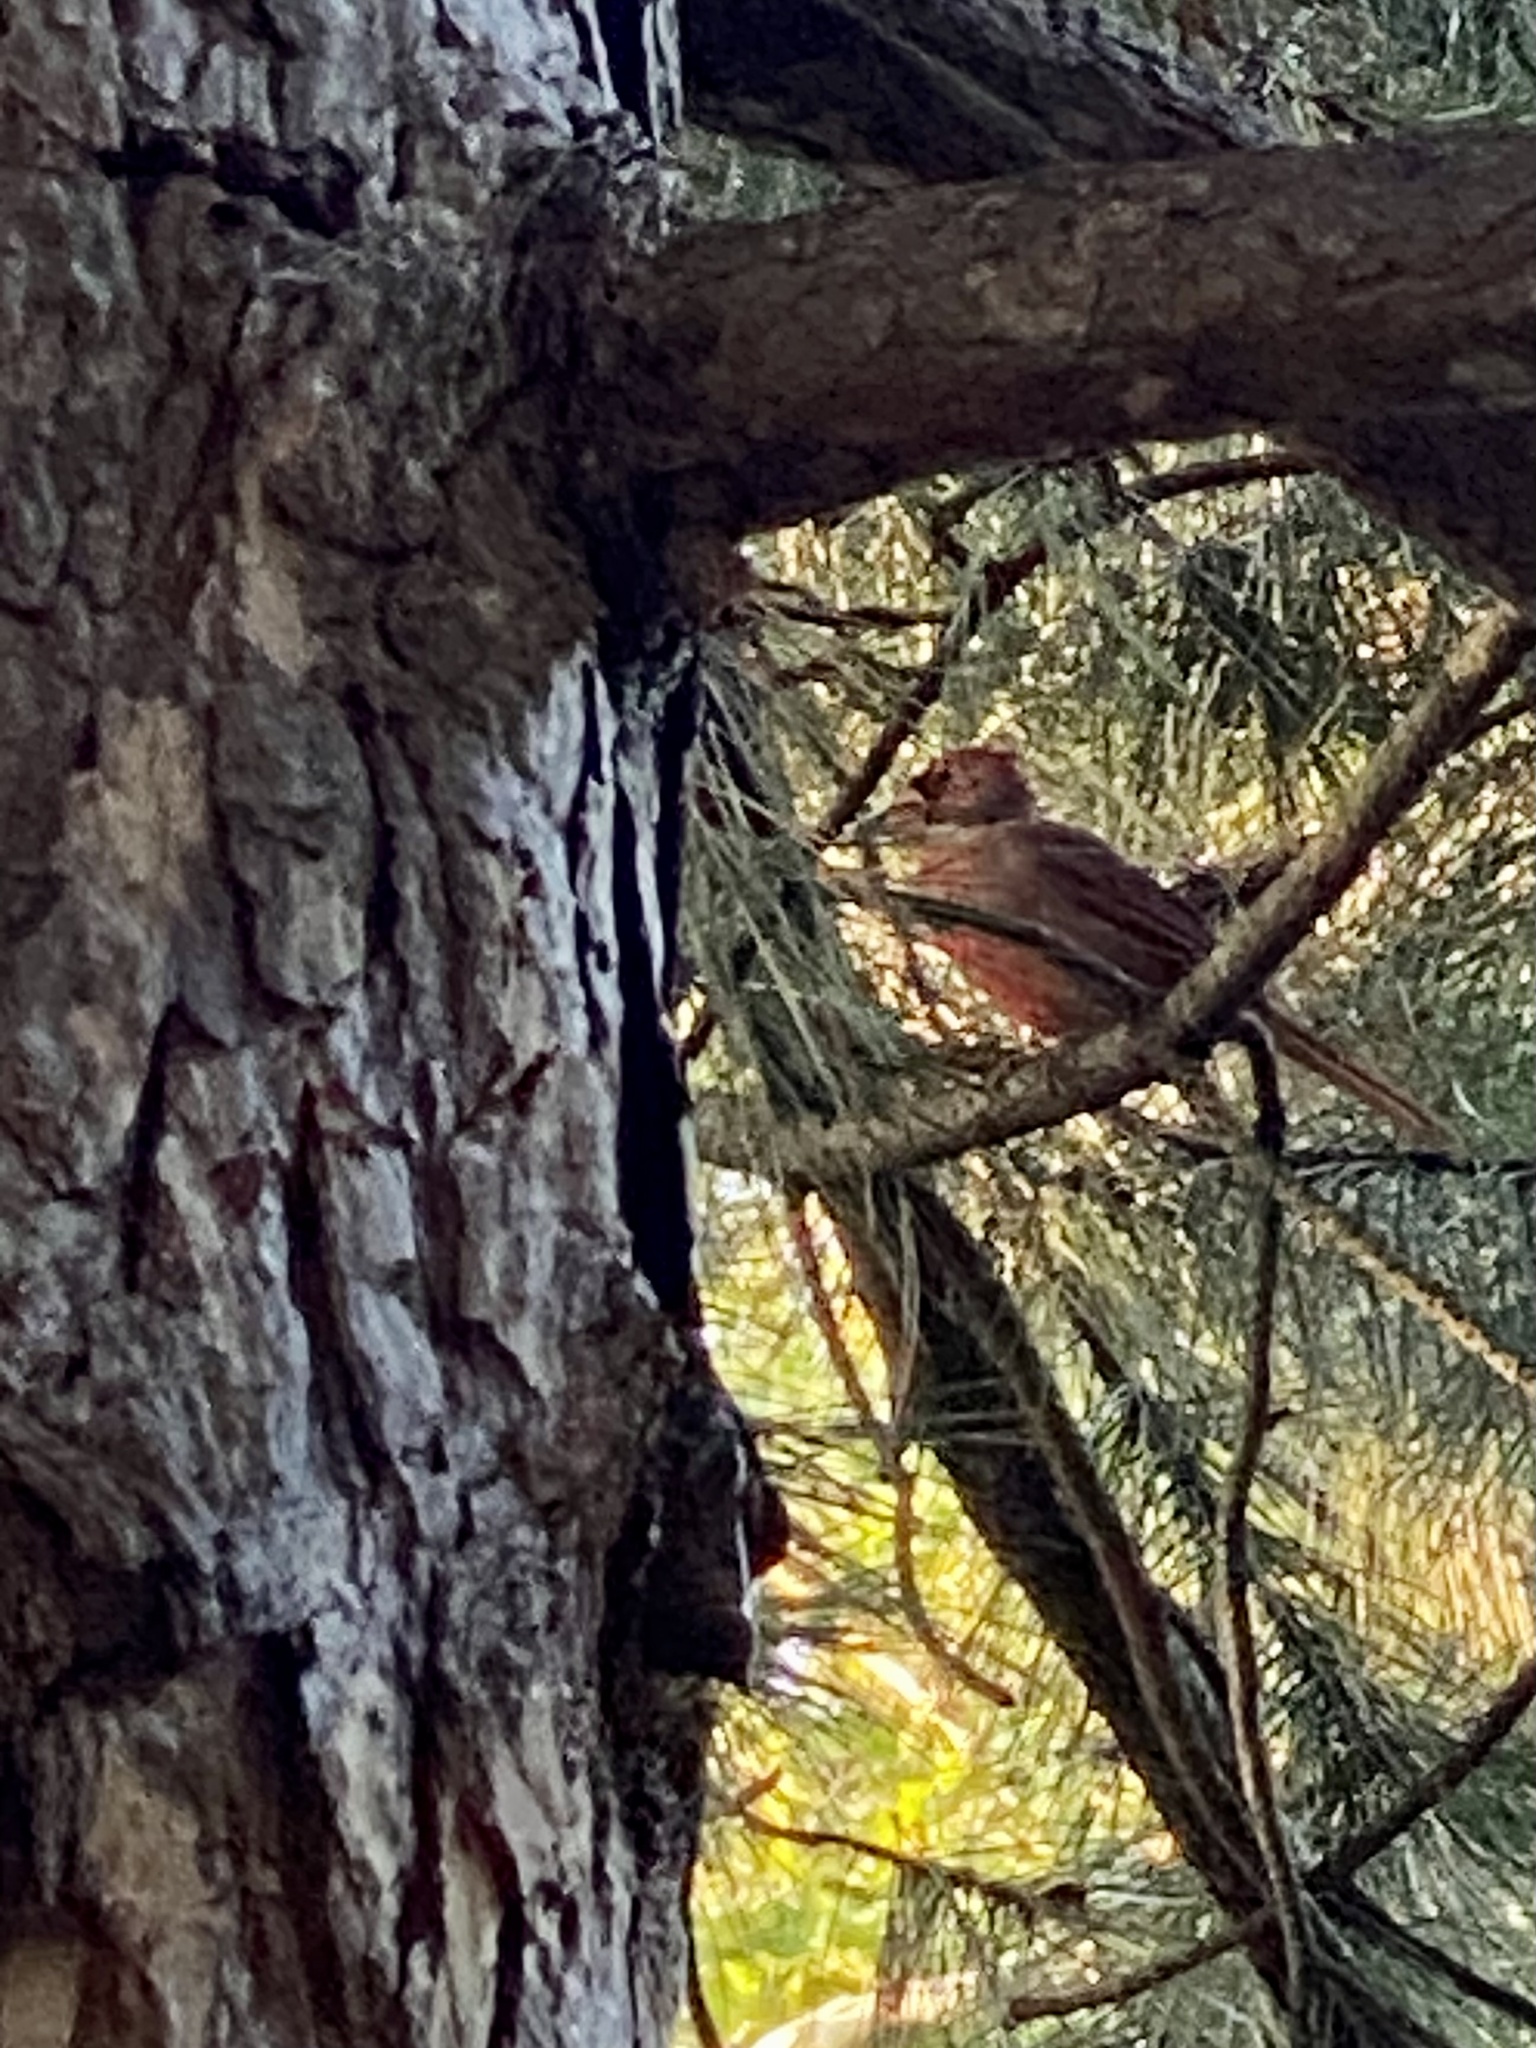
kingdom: Animalia
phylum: Chordata
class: Aves
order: Passeriformes
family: Cardinalidae
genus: Cardinalis
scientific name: Cardinalis cardinalis
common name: Northern cardinal
